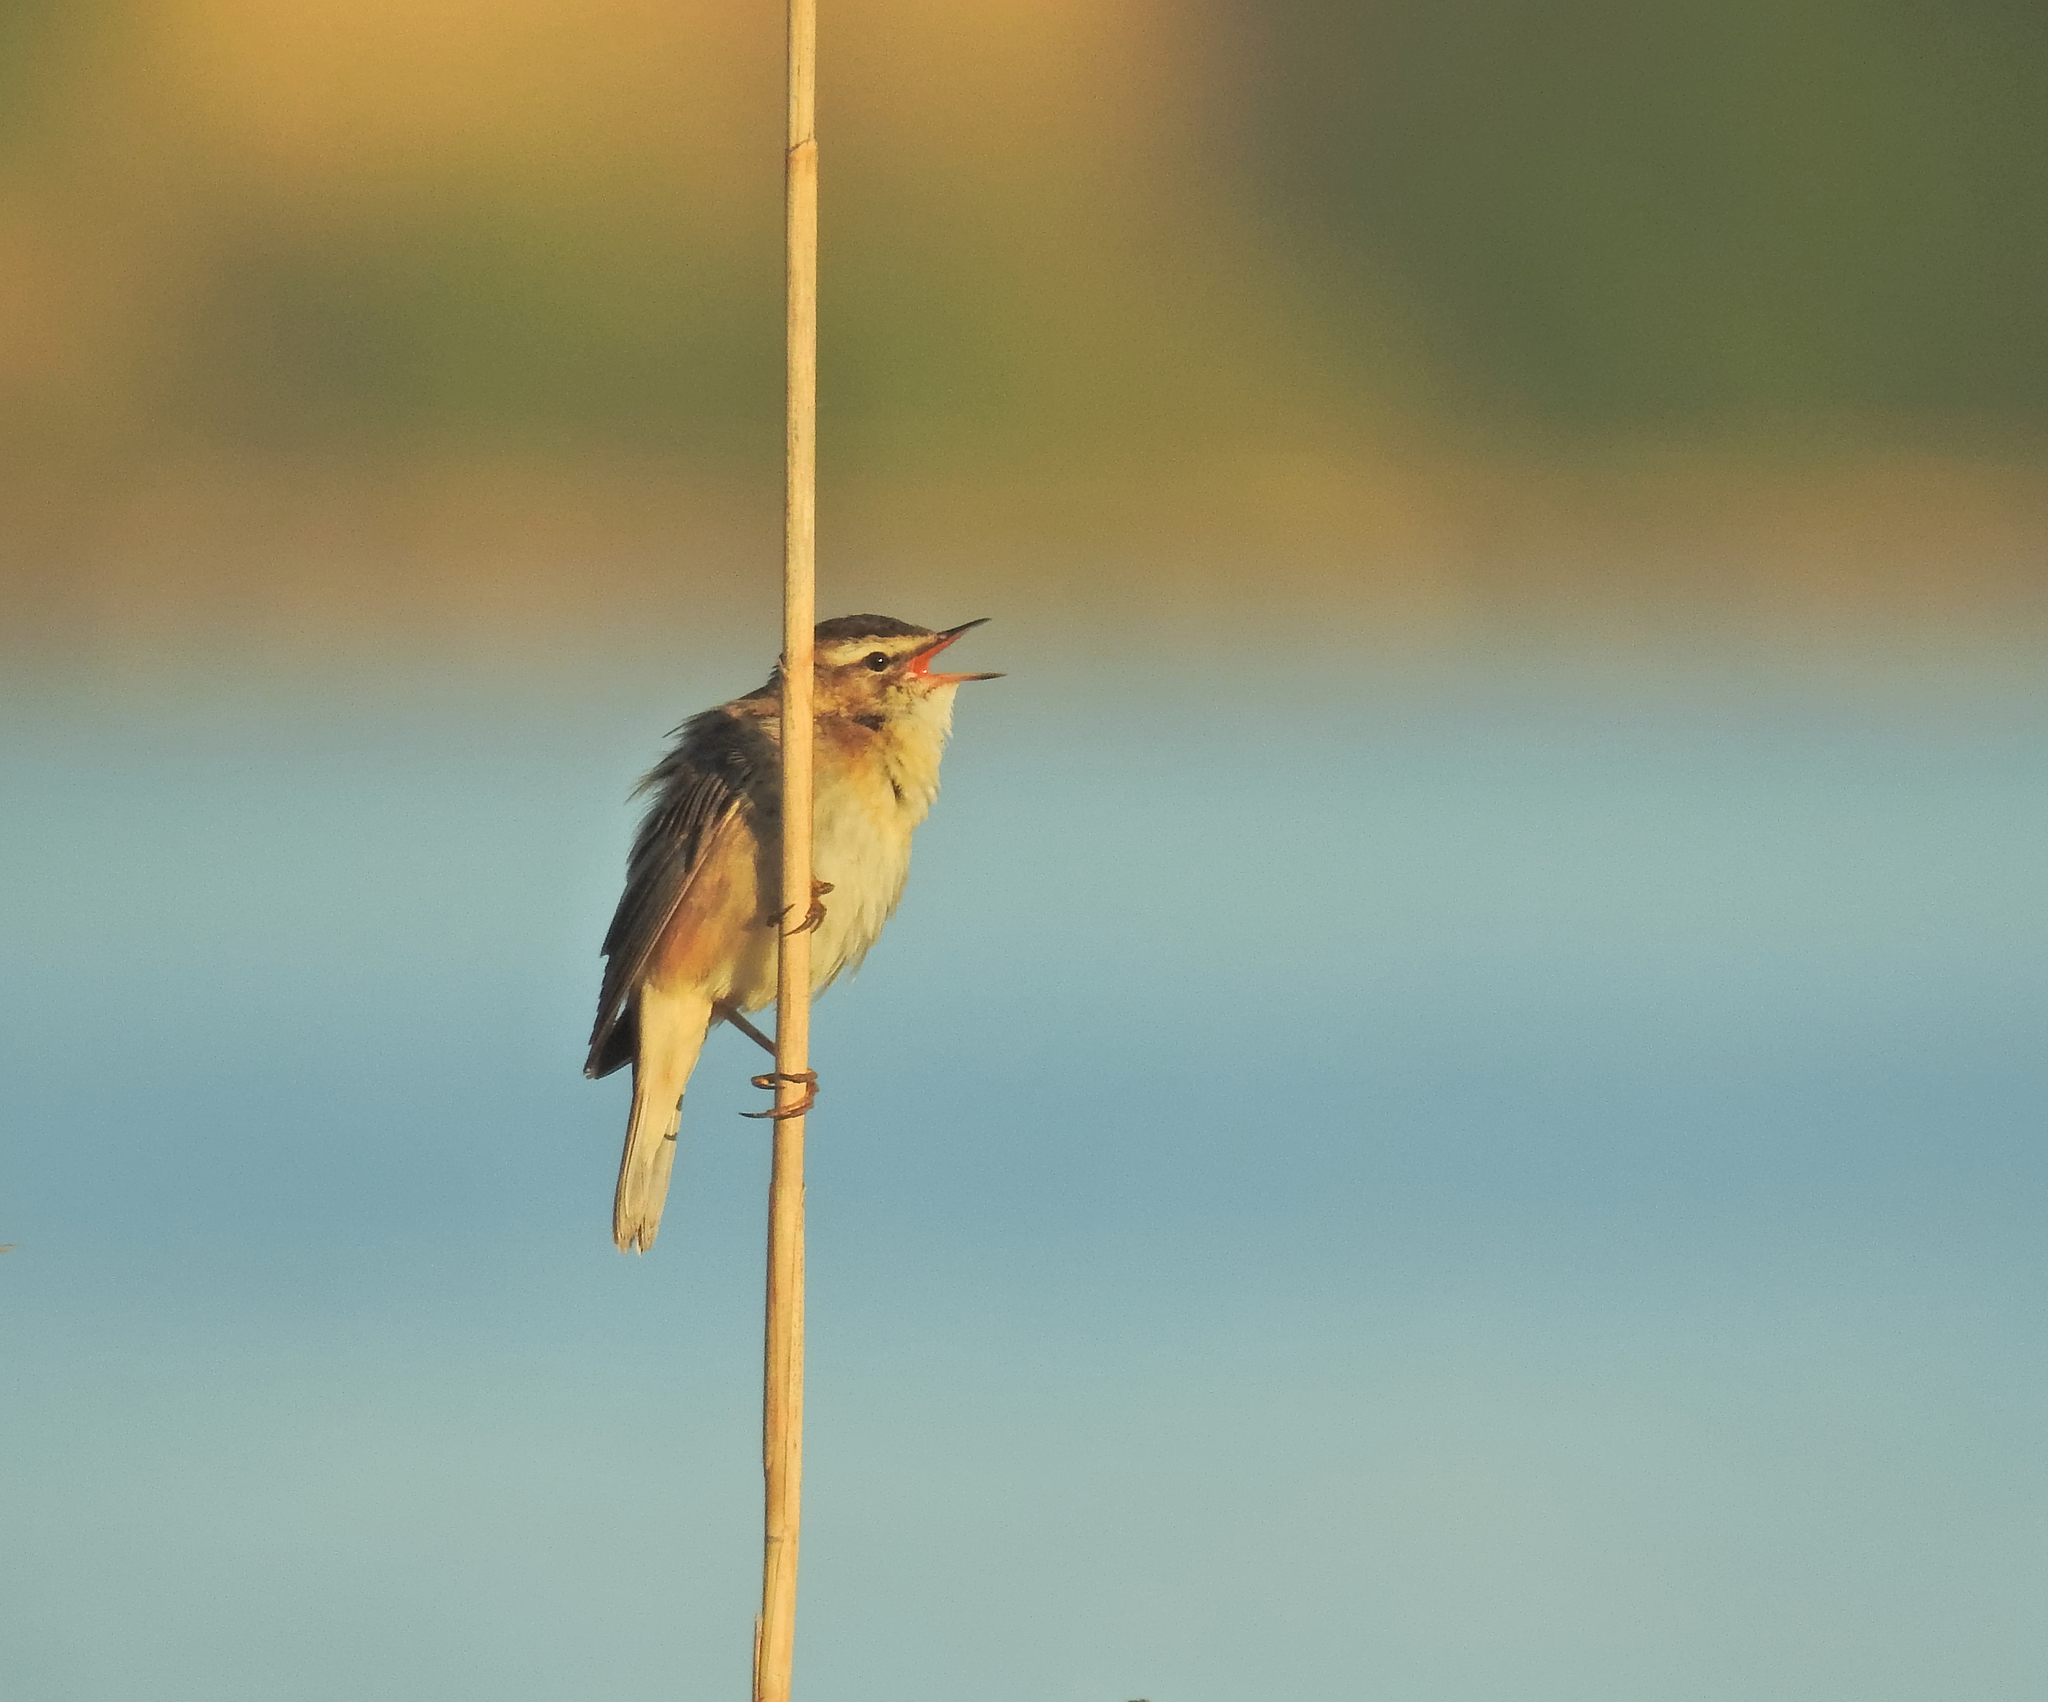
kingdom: Animalia
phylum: Chordata
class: Aves
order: Passeriformes
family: Acrocephalidae
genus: Acrocephalus
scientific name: Acrocephalus schoenobaenus
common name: Sedge warbler
